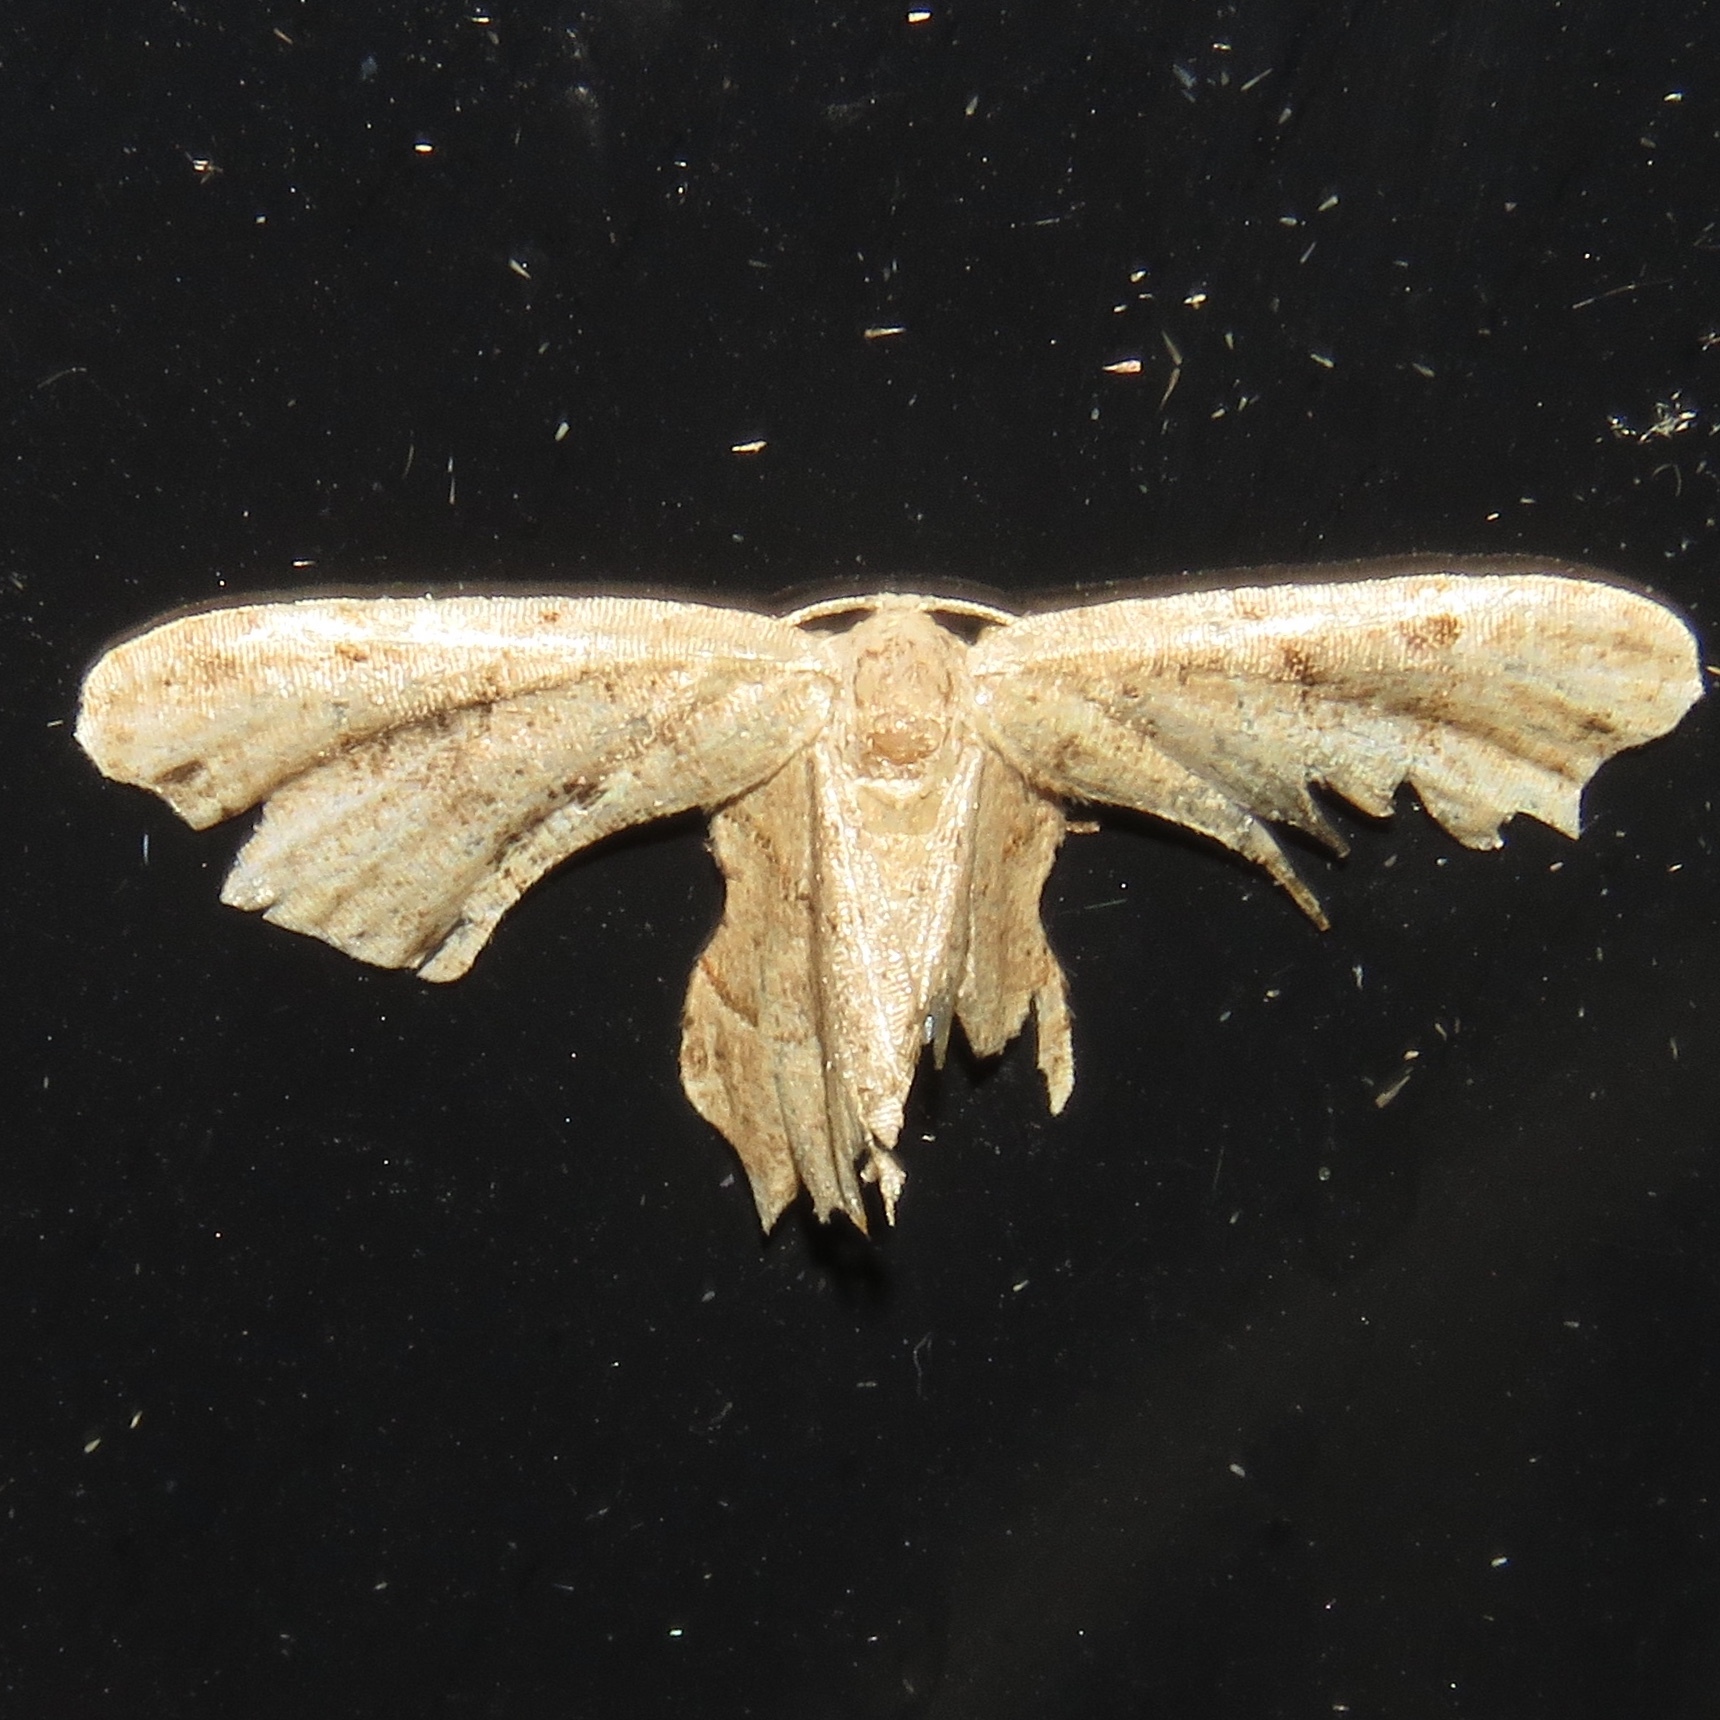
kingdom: Animalia
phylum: Arthropoda
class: Insecta
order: Lepidoptera
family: Uraniidae
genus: Epiplema
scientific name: Epiplema Calledapteryx dryopterata
